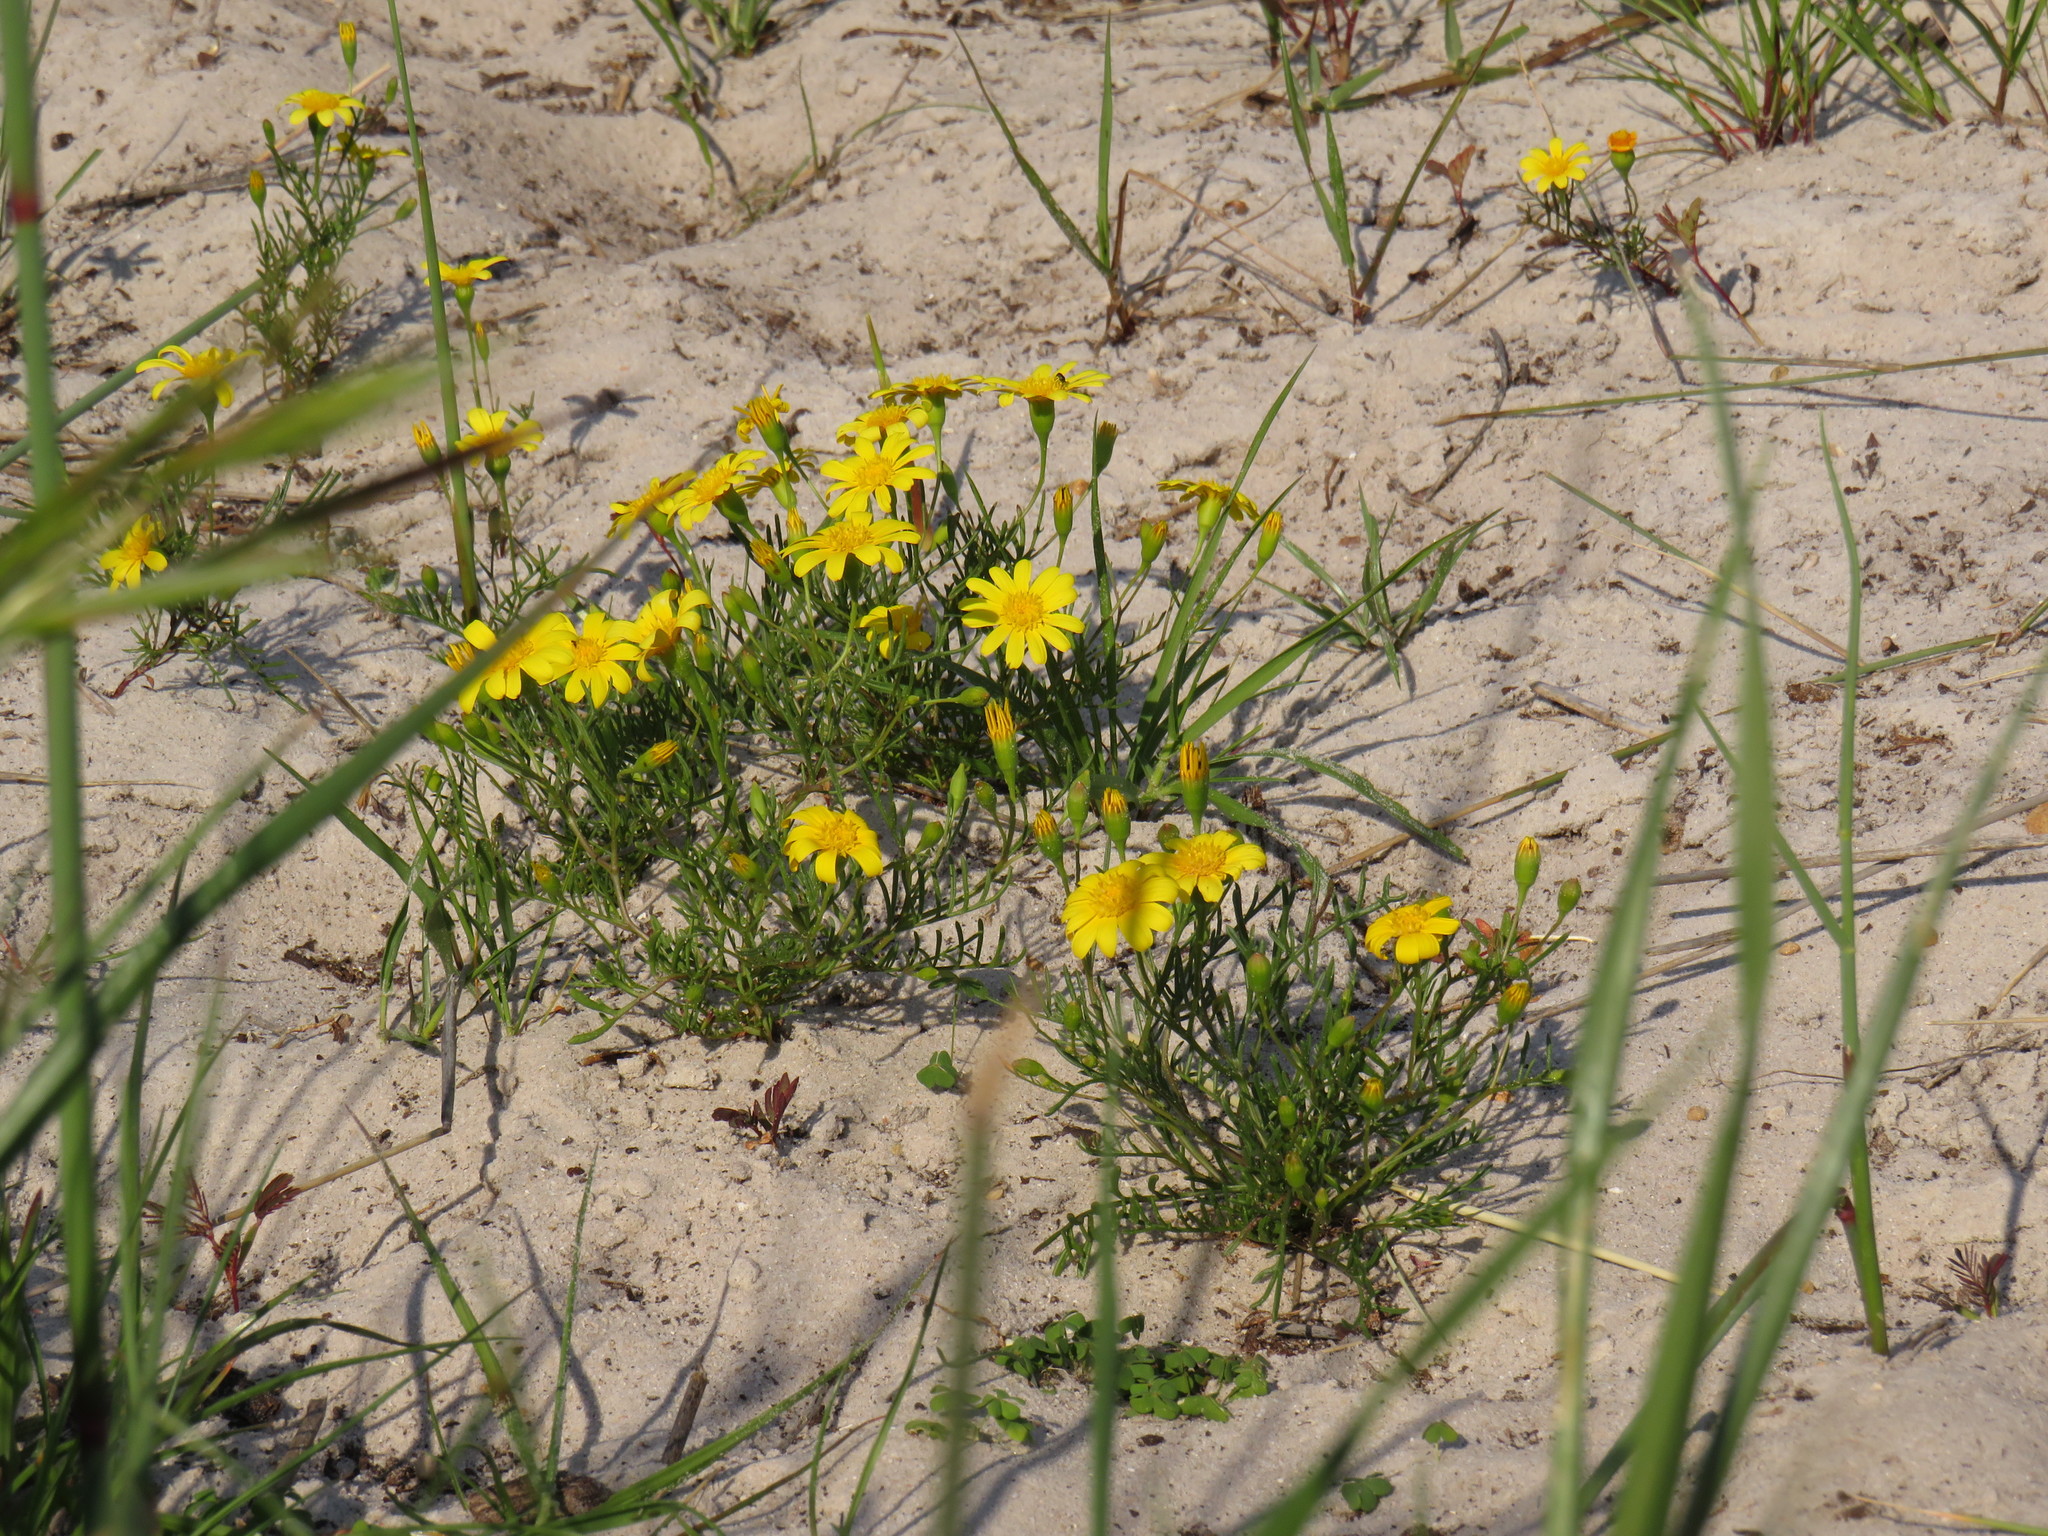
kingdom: Plantae
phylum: Tracheophyta
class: Magnoliopsida
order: Asterales
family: Asteraceae
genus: Steirodiscus
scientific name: Steirodiscus tagetes
